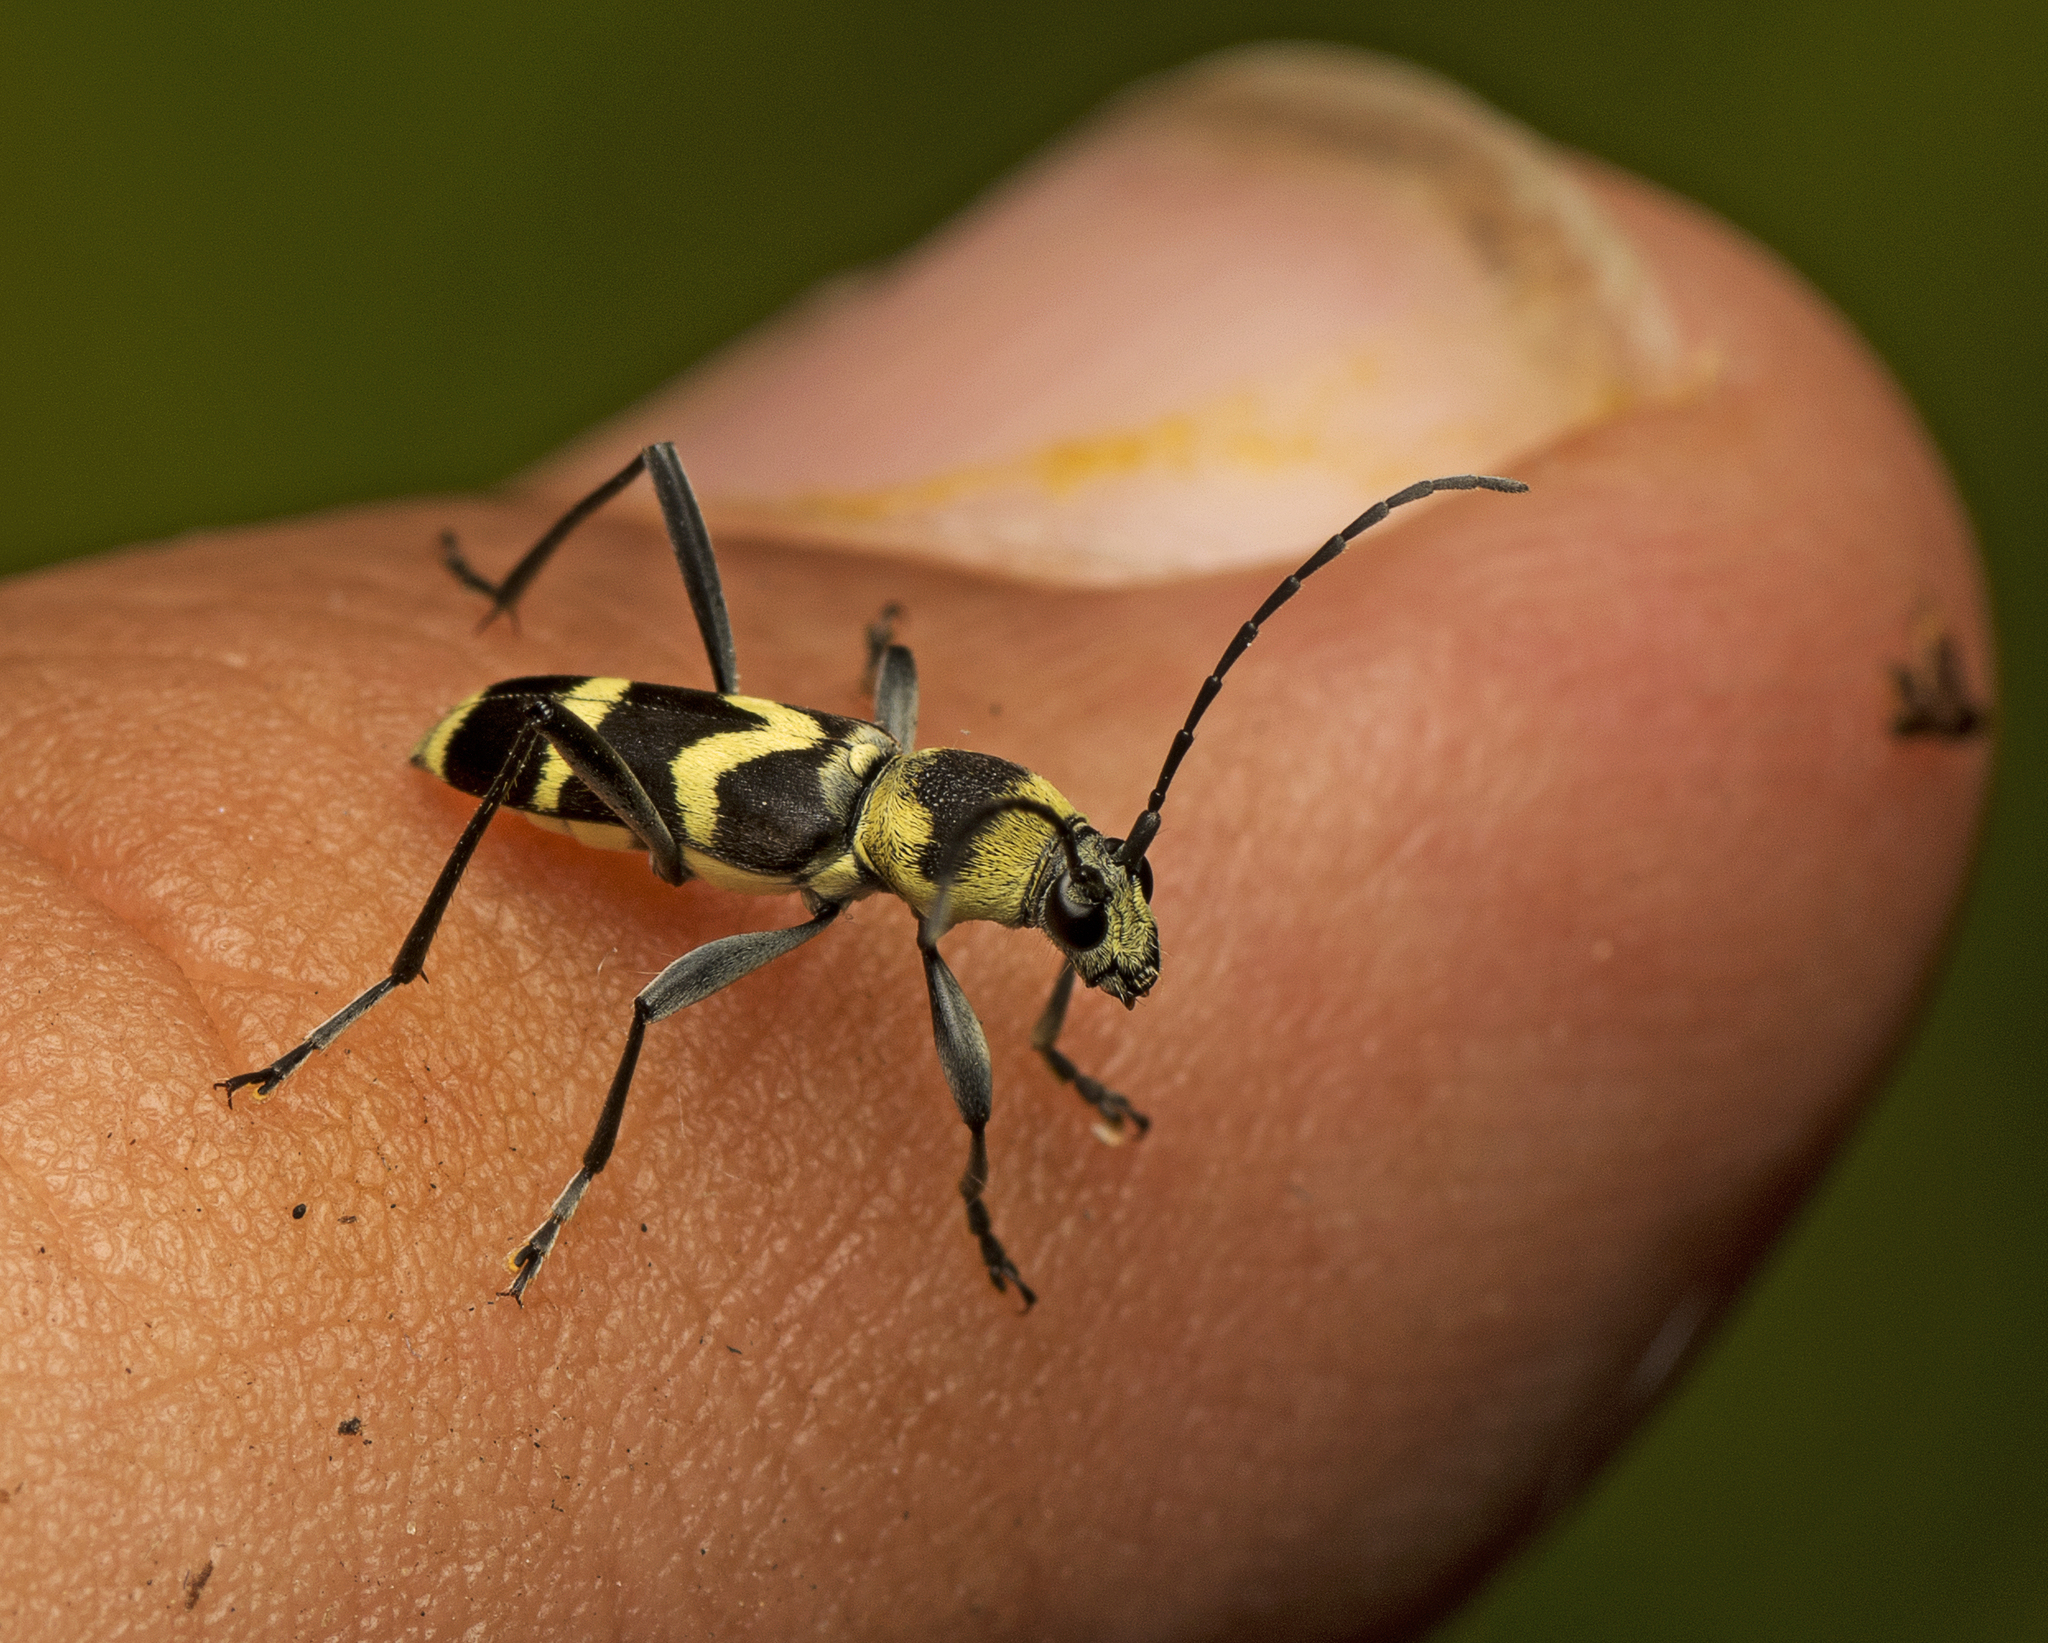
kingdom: Animalia
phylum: Arthropoda
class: Insecta
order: Coleoptera
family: Cerambycidae
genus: Clytus
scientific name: Clytus curtisi
